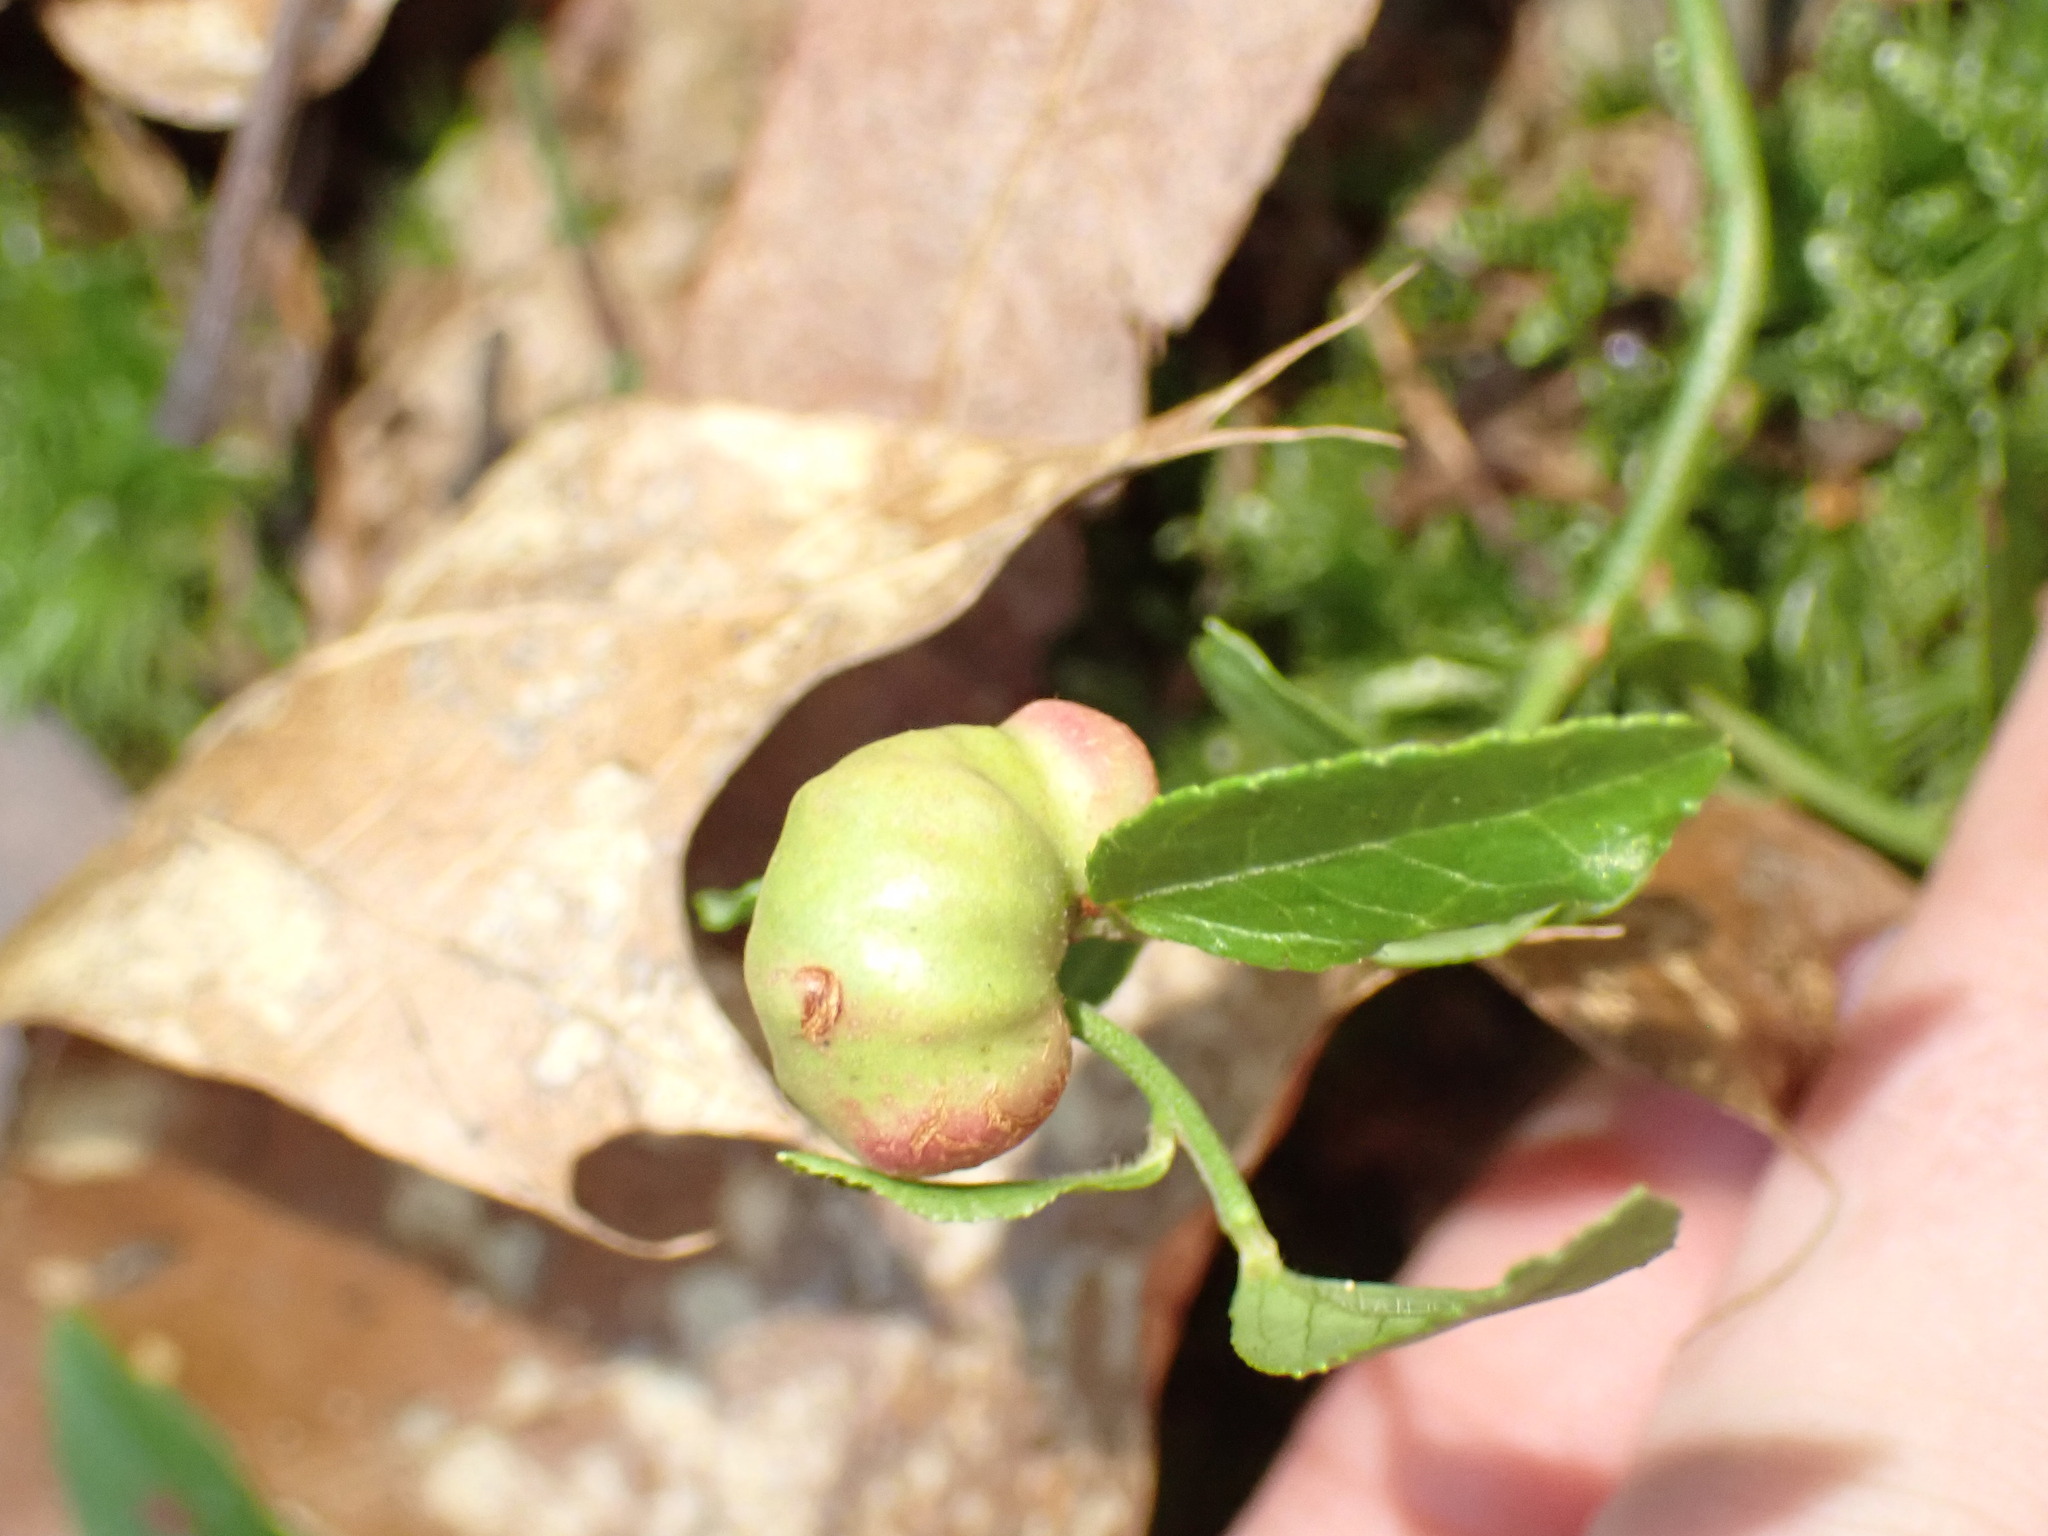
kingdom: Animalia
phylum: Arthropoda
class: Insecta
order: Hymenoptera
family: Pteromalidae
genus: Hemadas
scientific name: Hemadas nubilipennis
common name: Blueberry stem gall wasp
